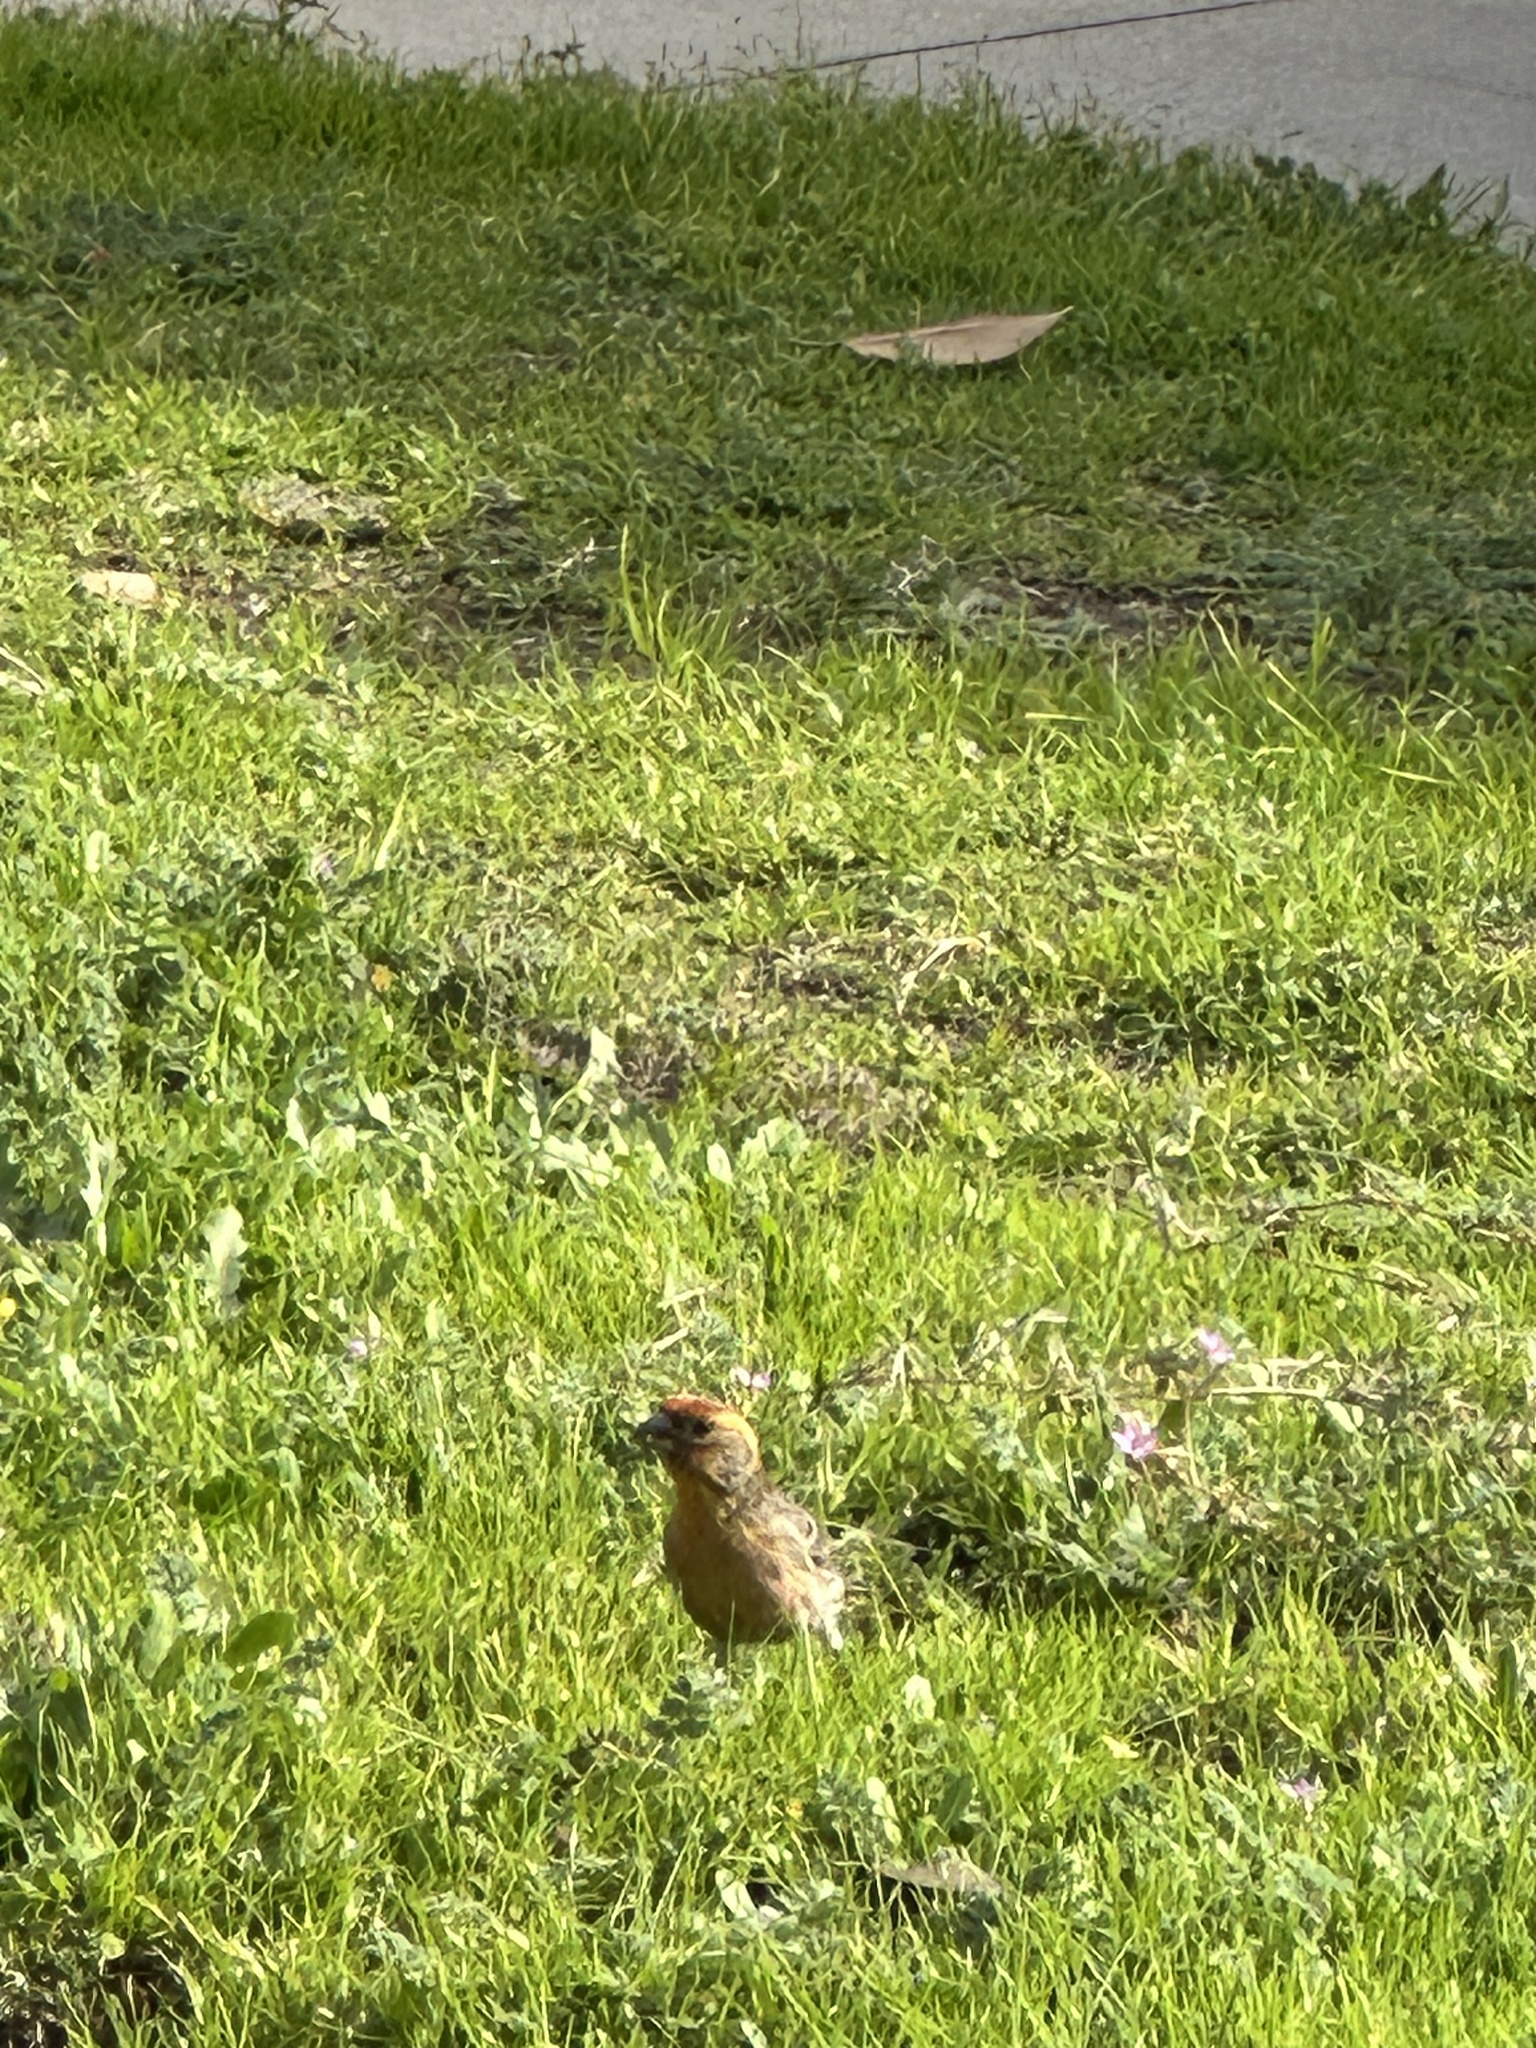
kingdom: Animalia
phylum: Chordata
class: Aves
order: Passeriformes
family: Fringillidae
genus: Haemorhous
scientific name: Haemorhous mexicanus
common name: House finch
